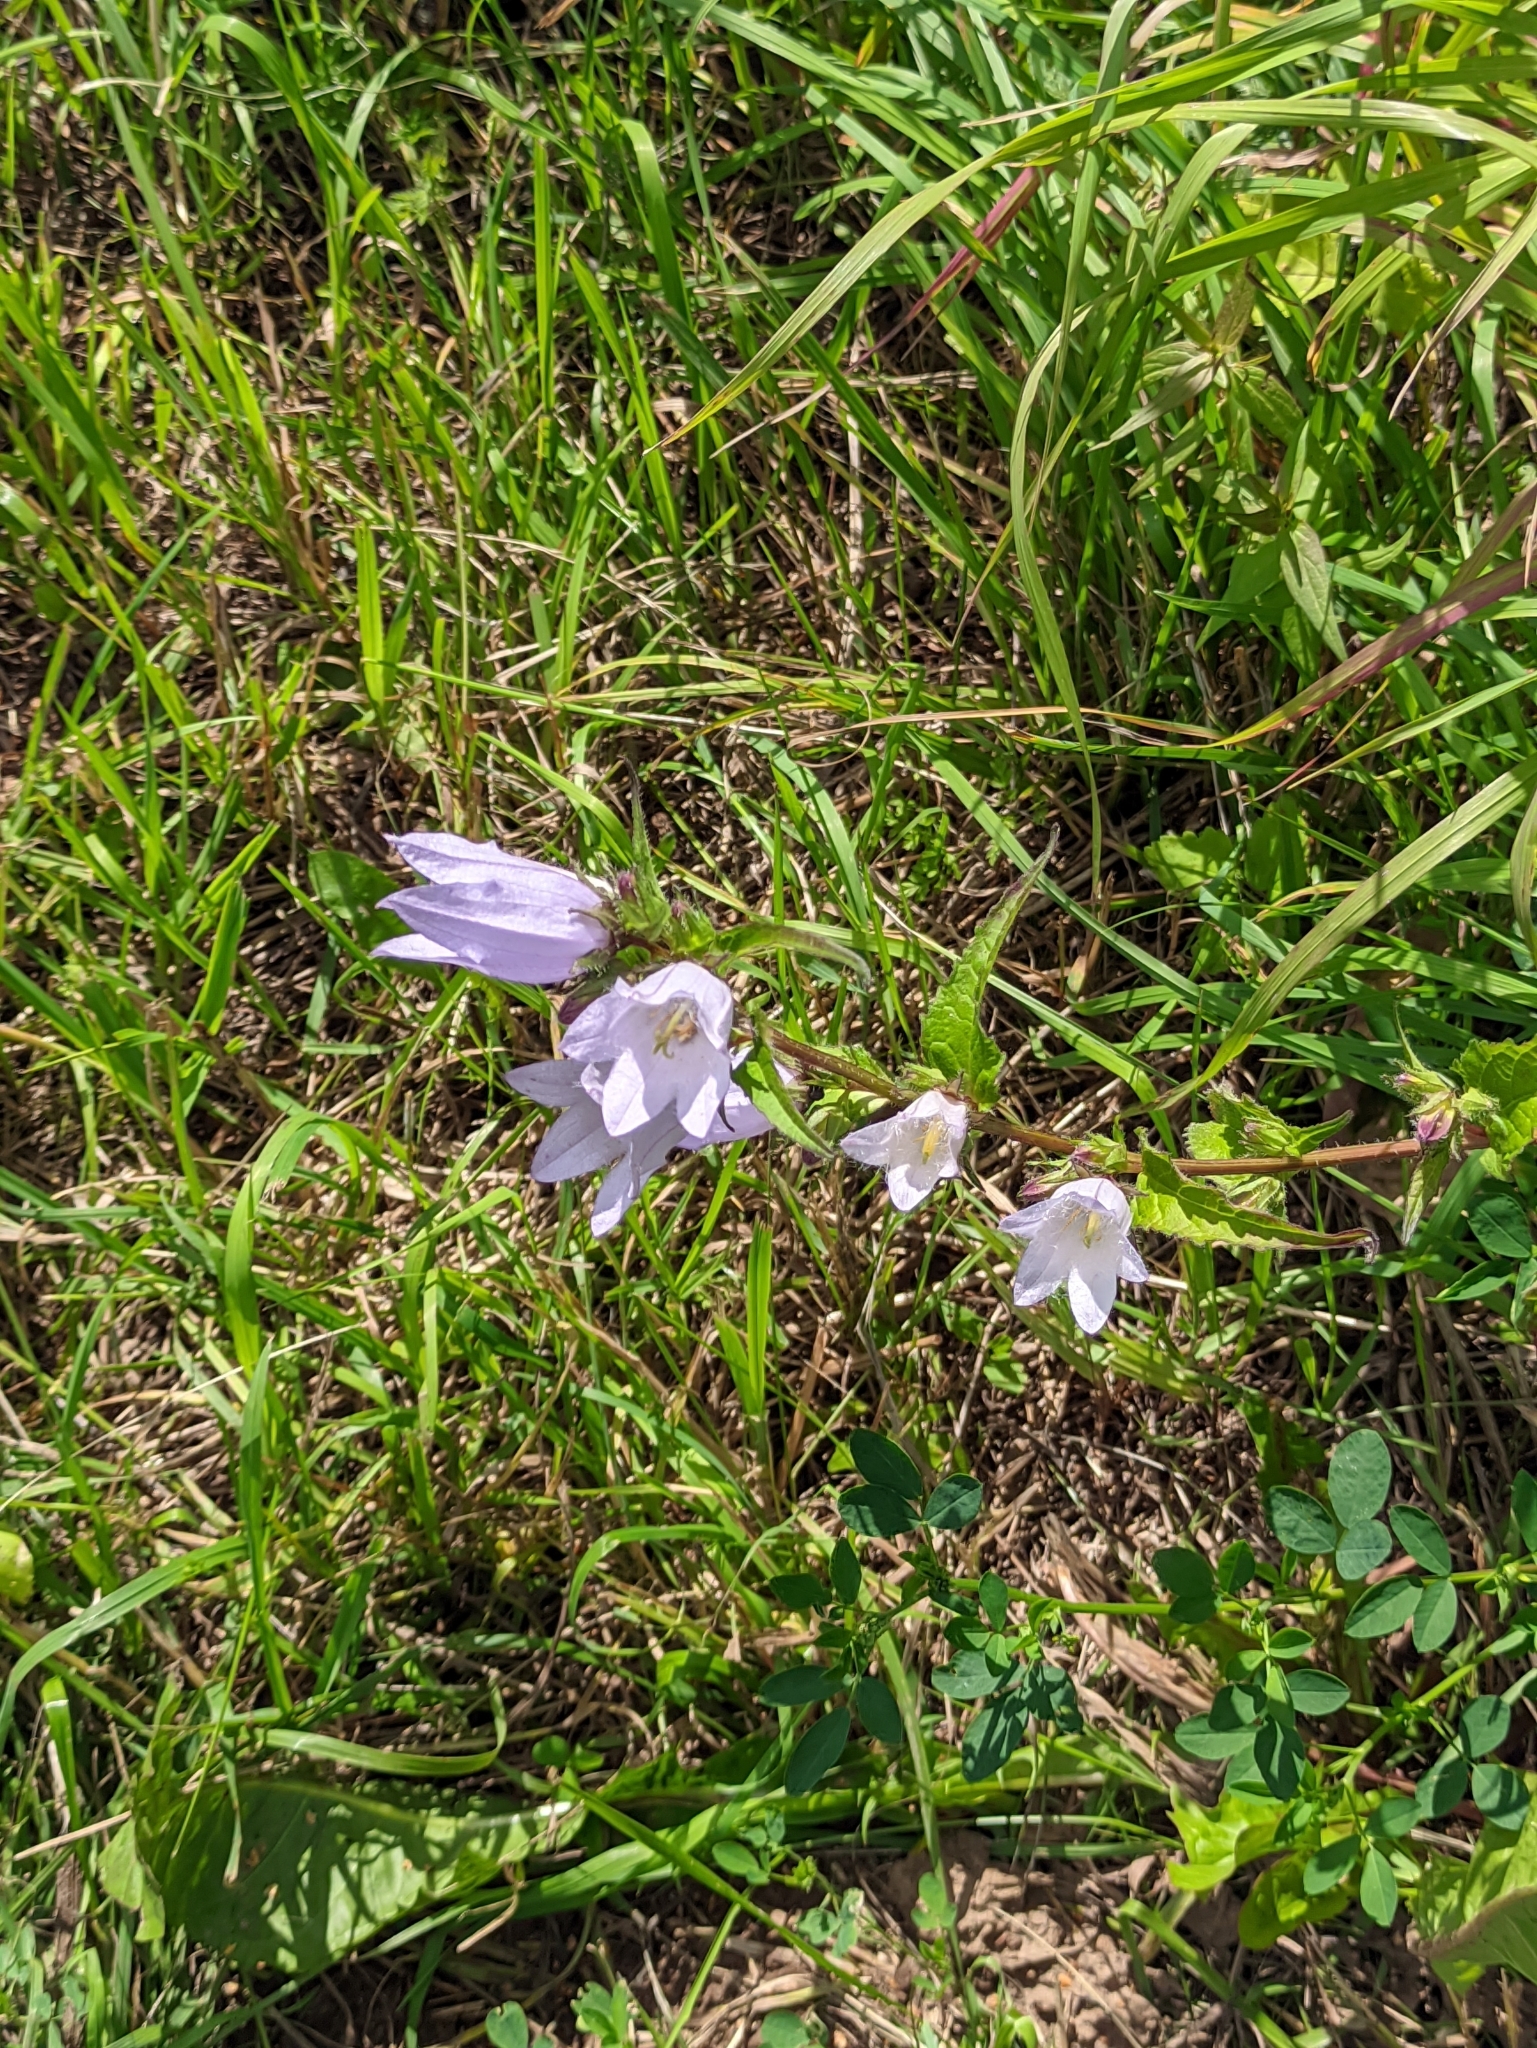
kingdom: Plantae
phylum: Tracheophyta
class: Magnoliopsida
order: Asterales
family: Campanulaceae
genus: Campanula
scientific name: Campanula trachelium
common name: Nettle-leaved bellflower
